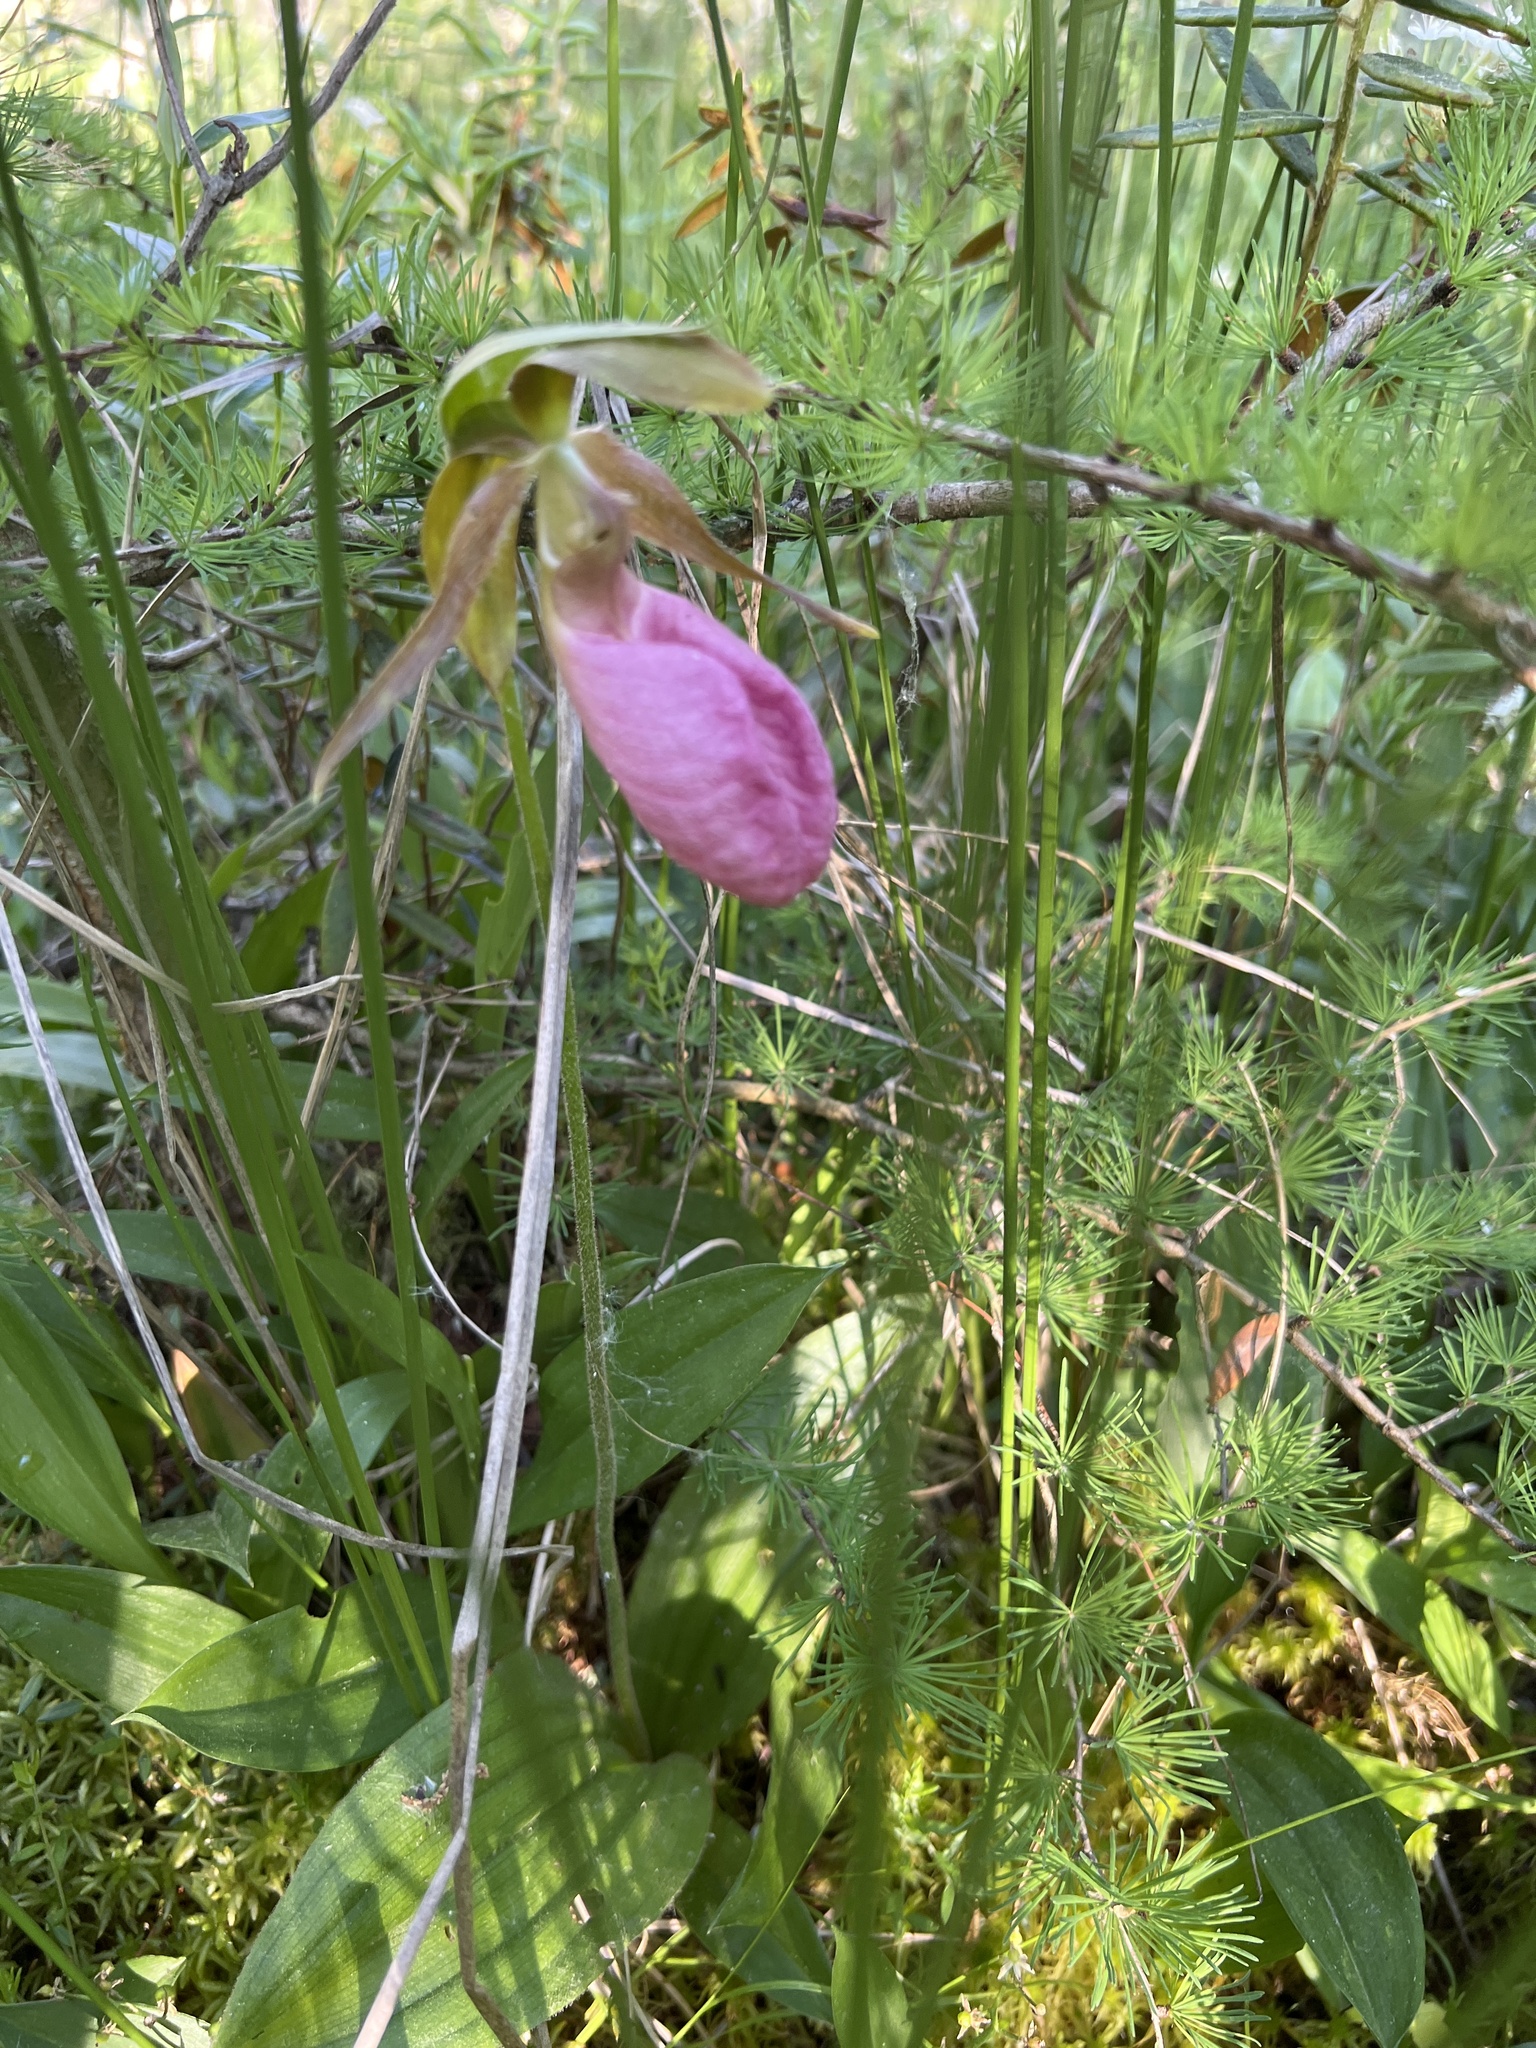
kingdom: Plantae
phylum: Tracheophyta
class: Liliopsida
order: Asparagales
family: Orchidaceae
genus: Cypripedium
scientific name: Cypripedium acaule
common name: Pink lady's-slipper
